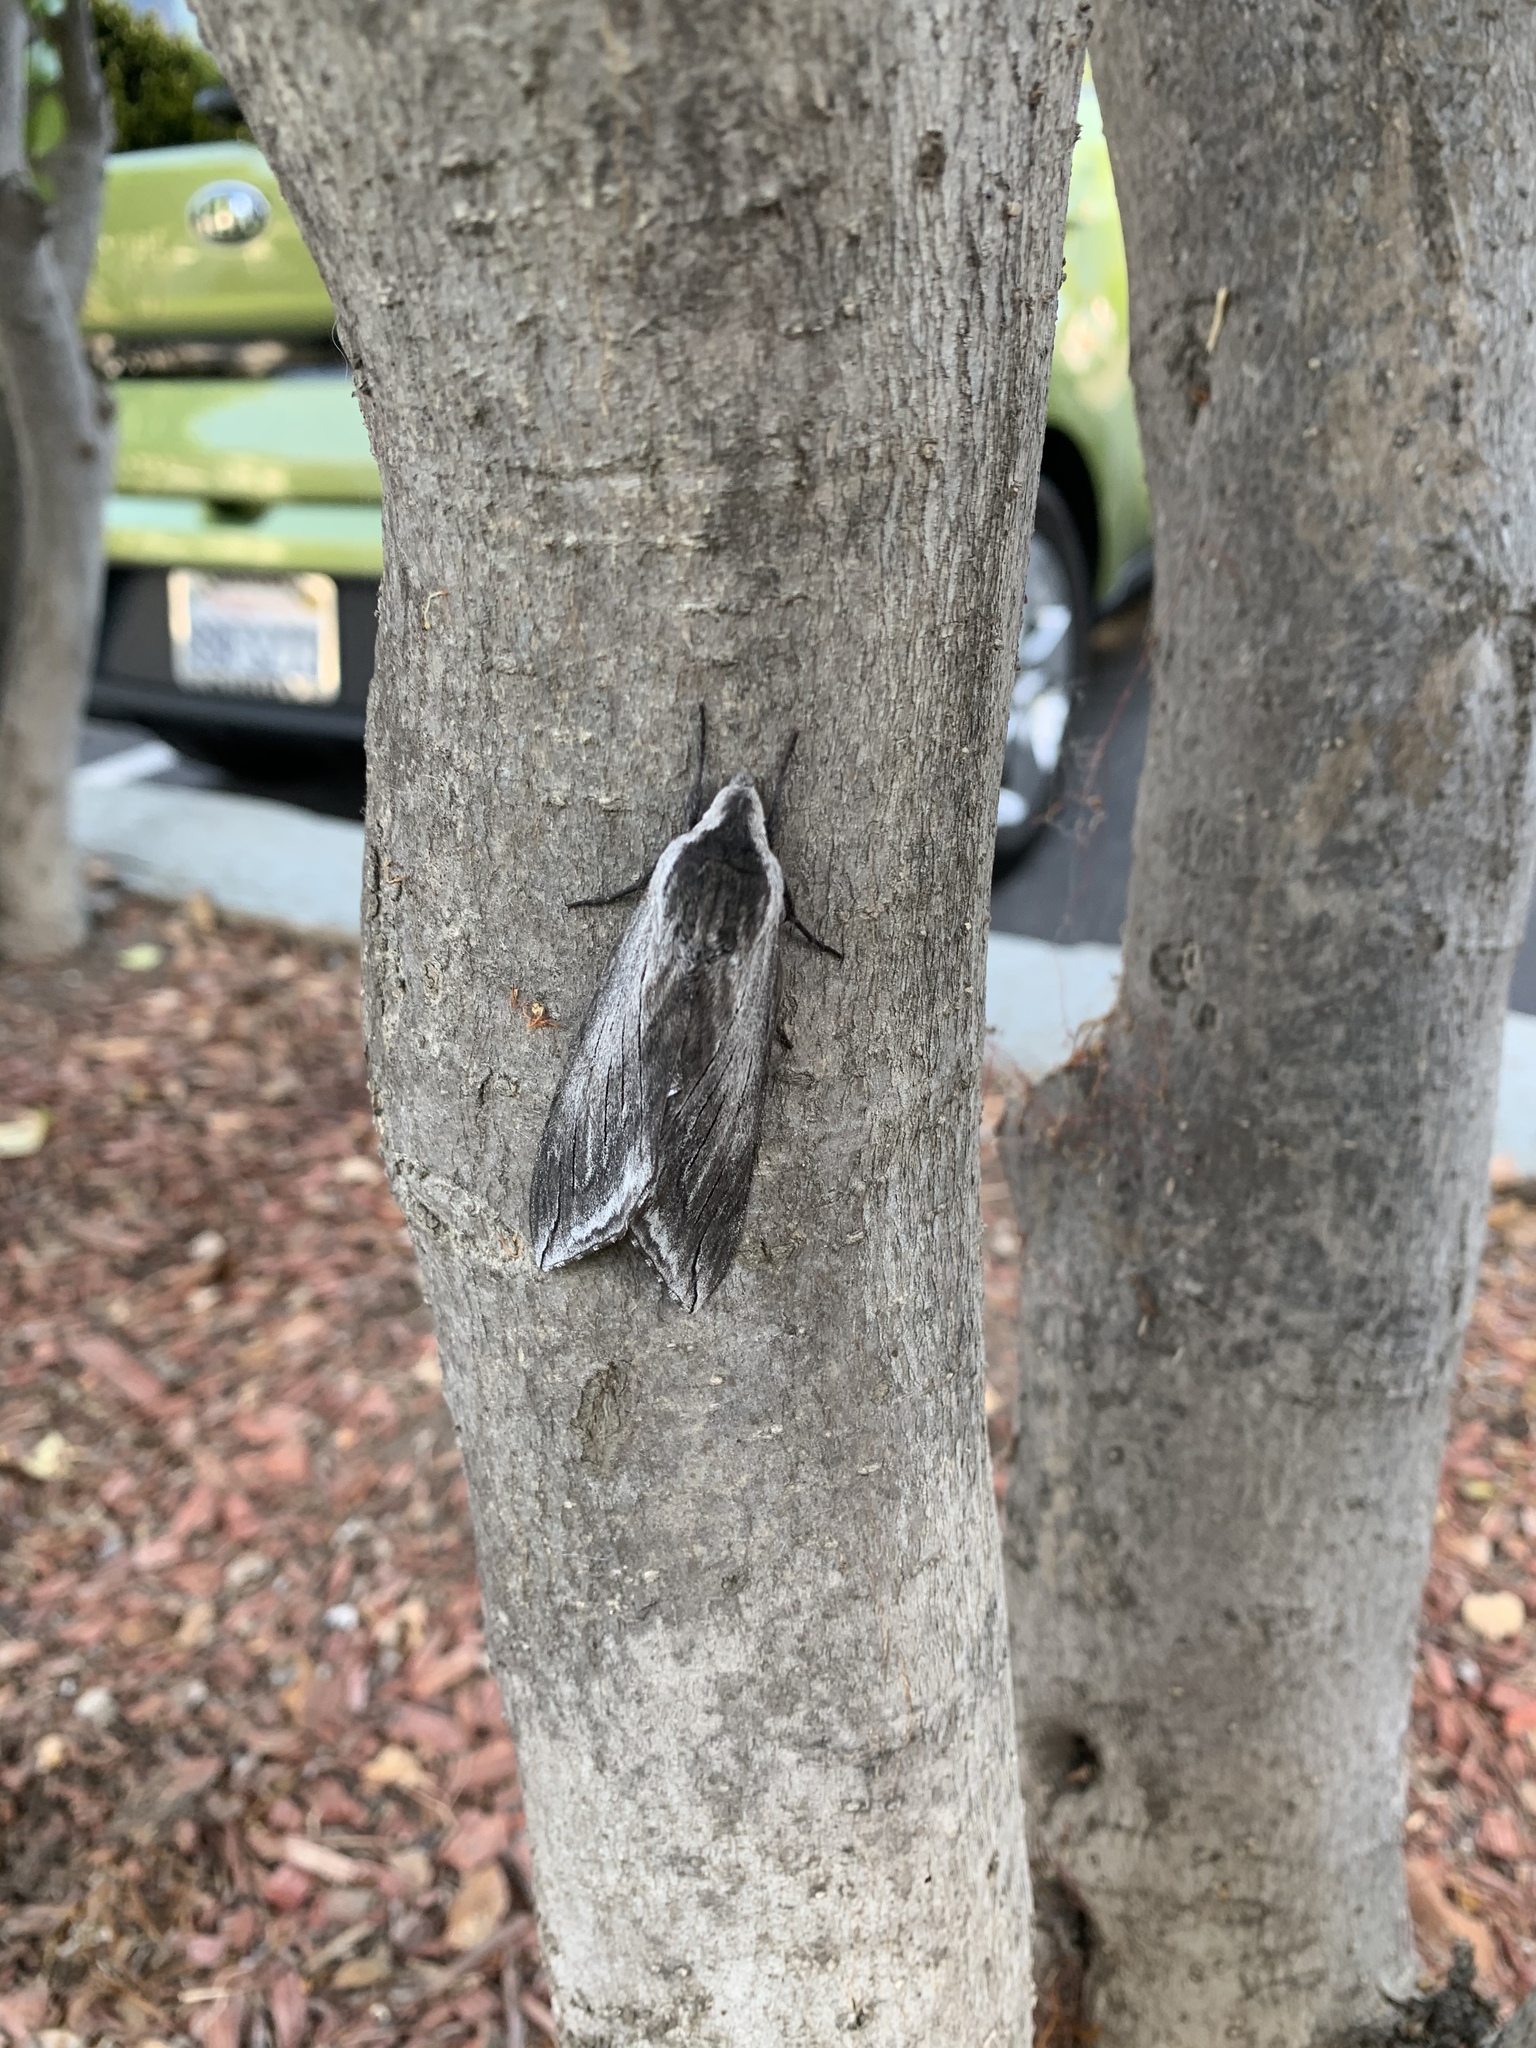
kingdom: Animalia
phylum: Arthropoda
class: Insecta
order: Lepidoptera
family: Sphingidae
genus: Sphinx
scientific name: Sphinx perelegans
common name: Elegant sphinx
